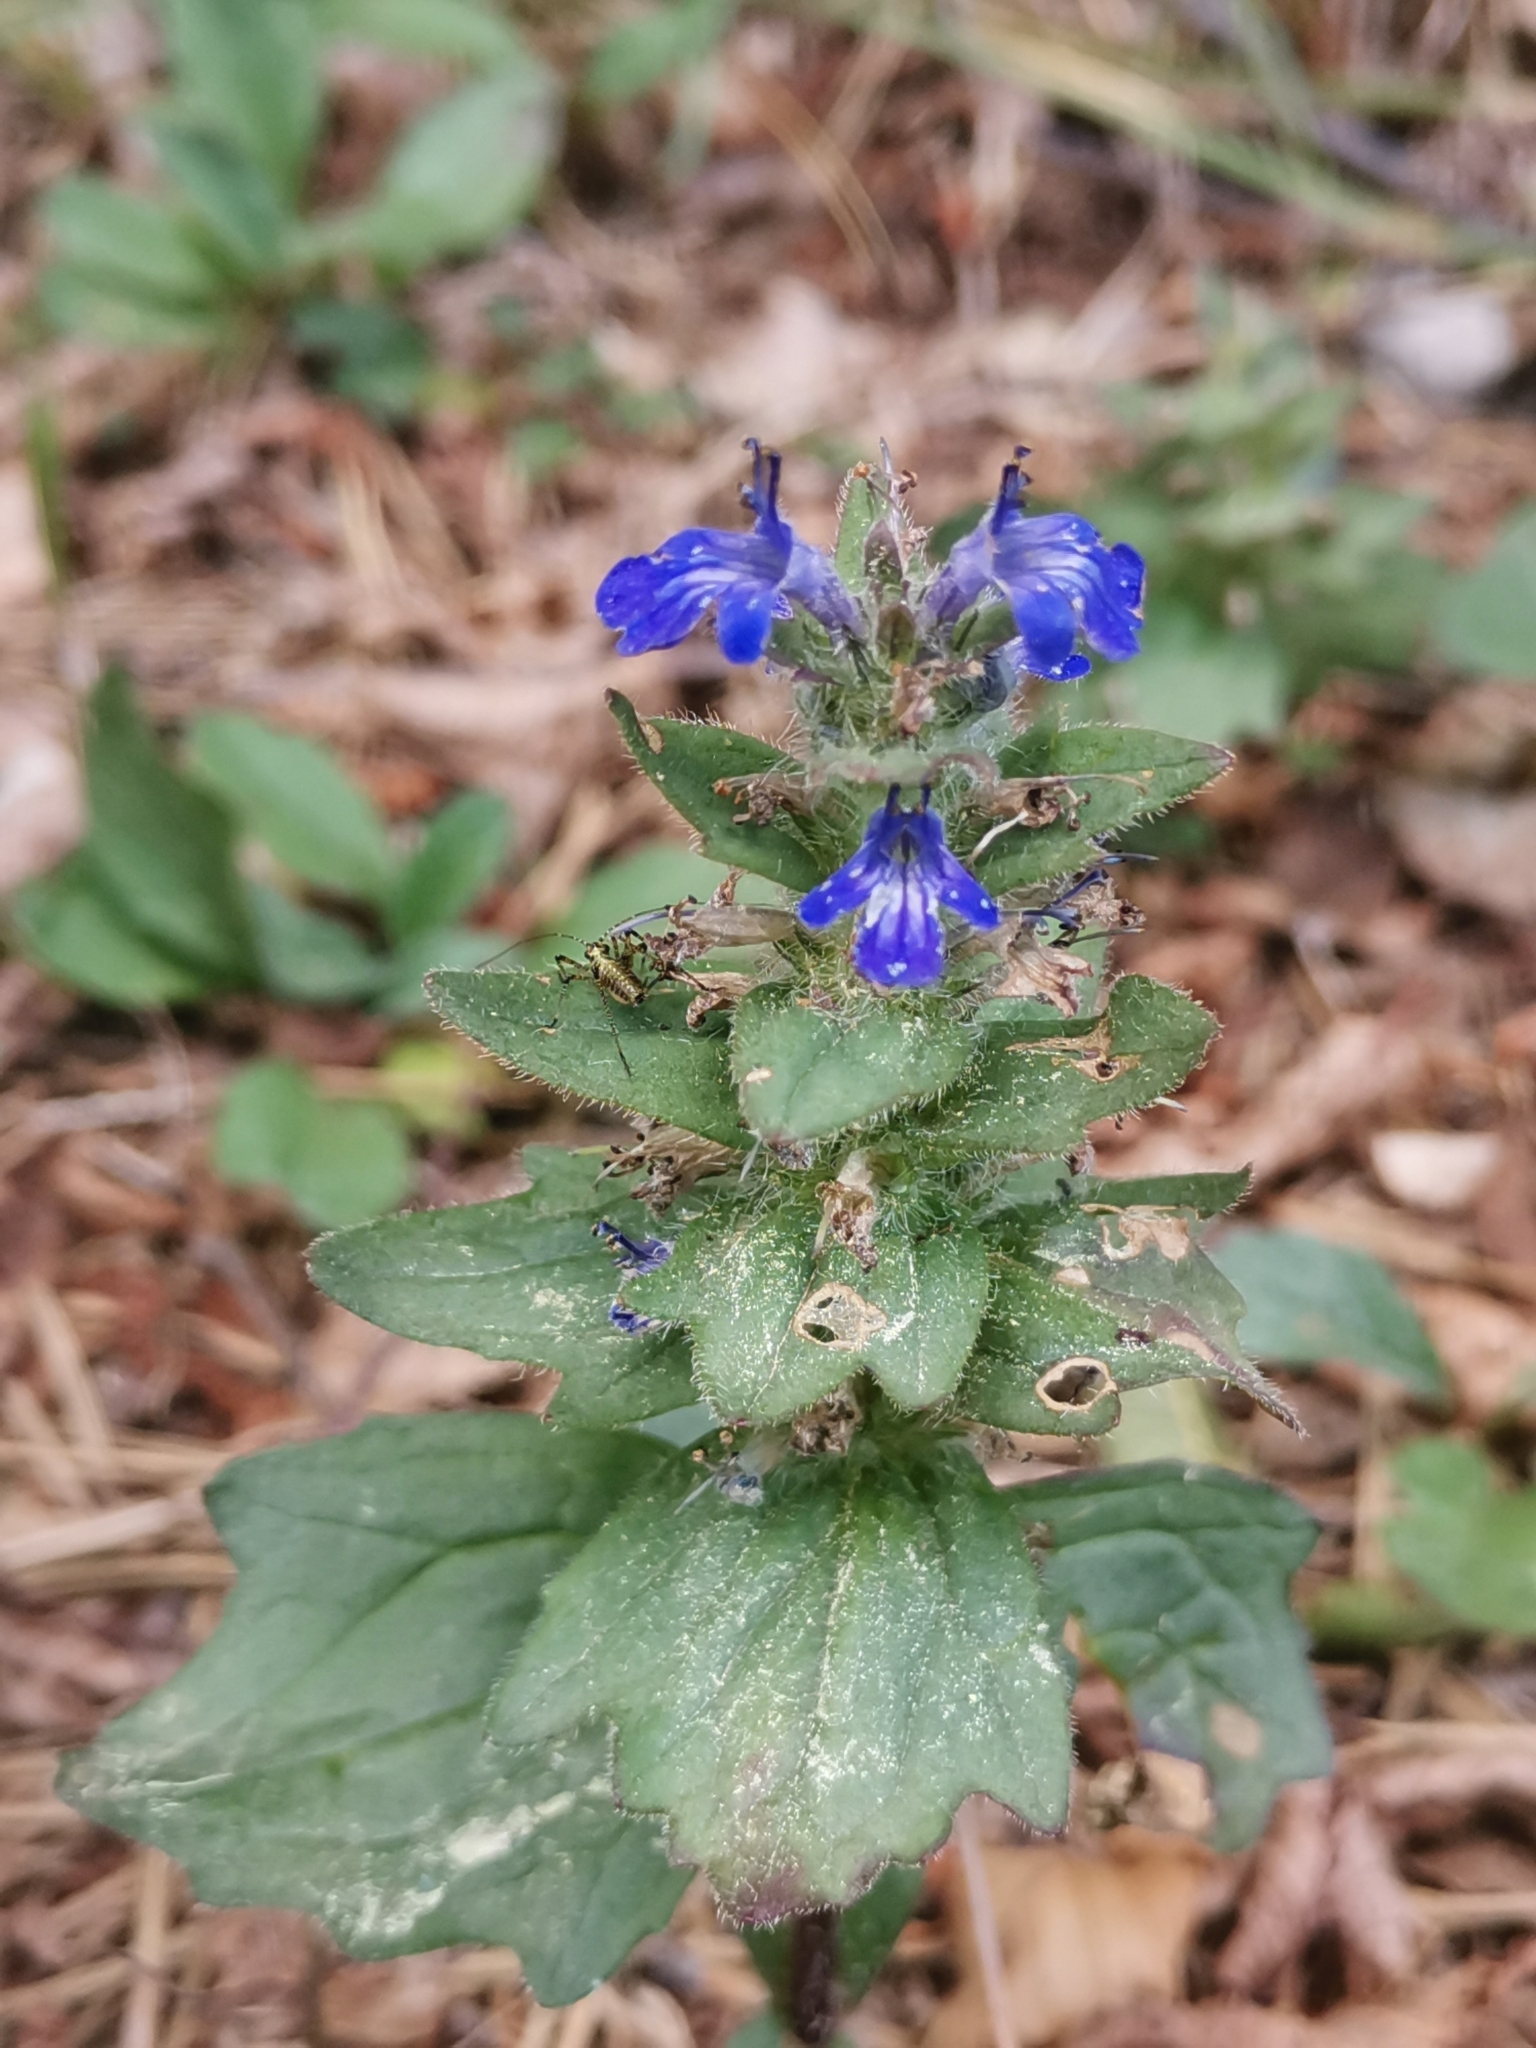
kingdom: Plantae
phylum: Tracheophyta
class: Magnoliopsida
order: Lamiales
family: Lamiaceae
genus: Ajuga
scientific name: Ajuga genevensis
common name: Blue bugle
